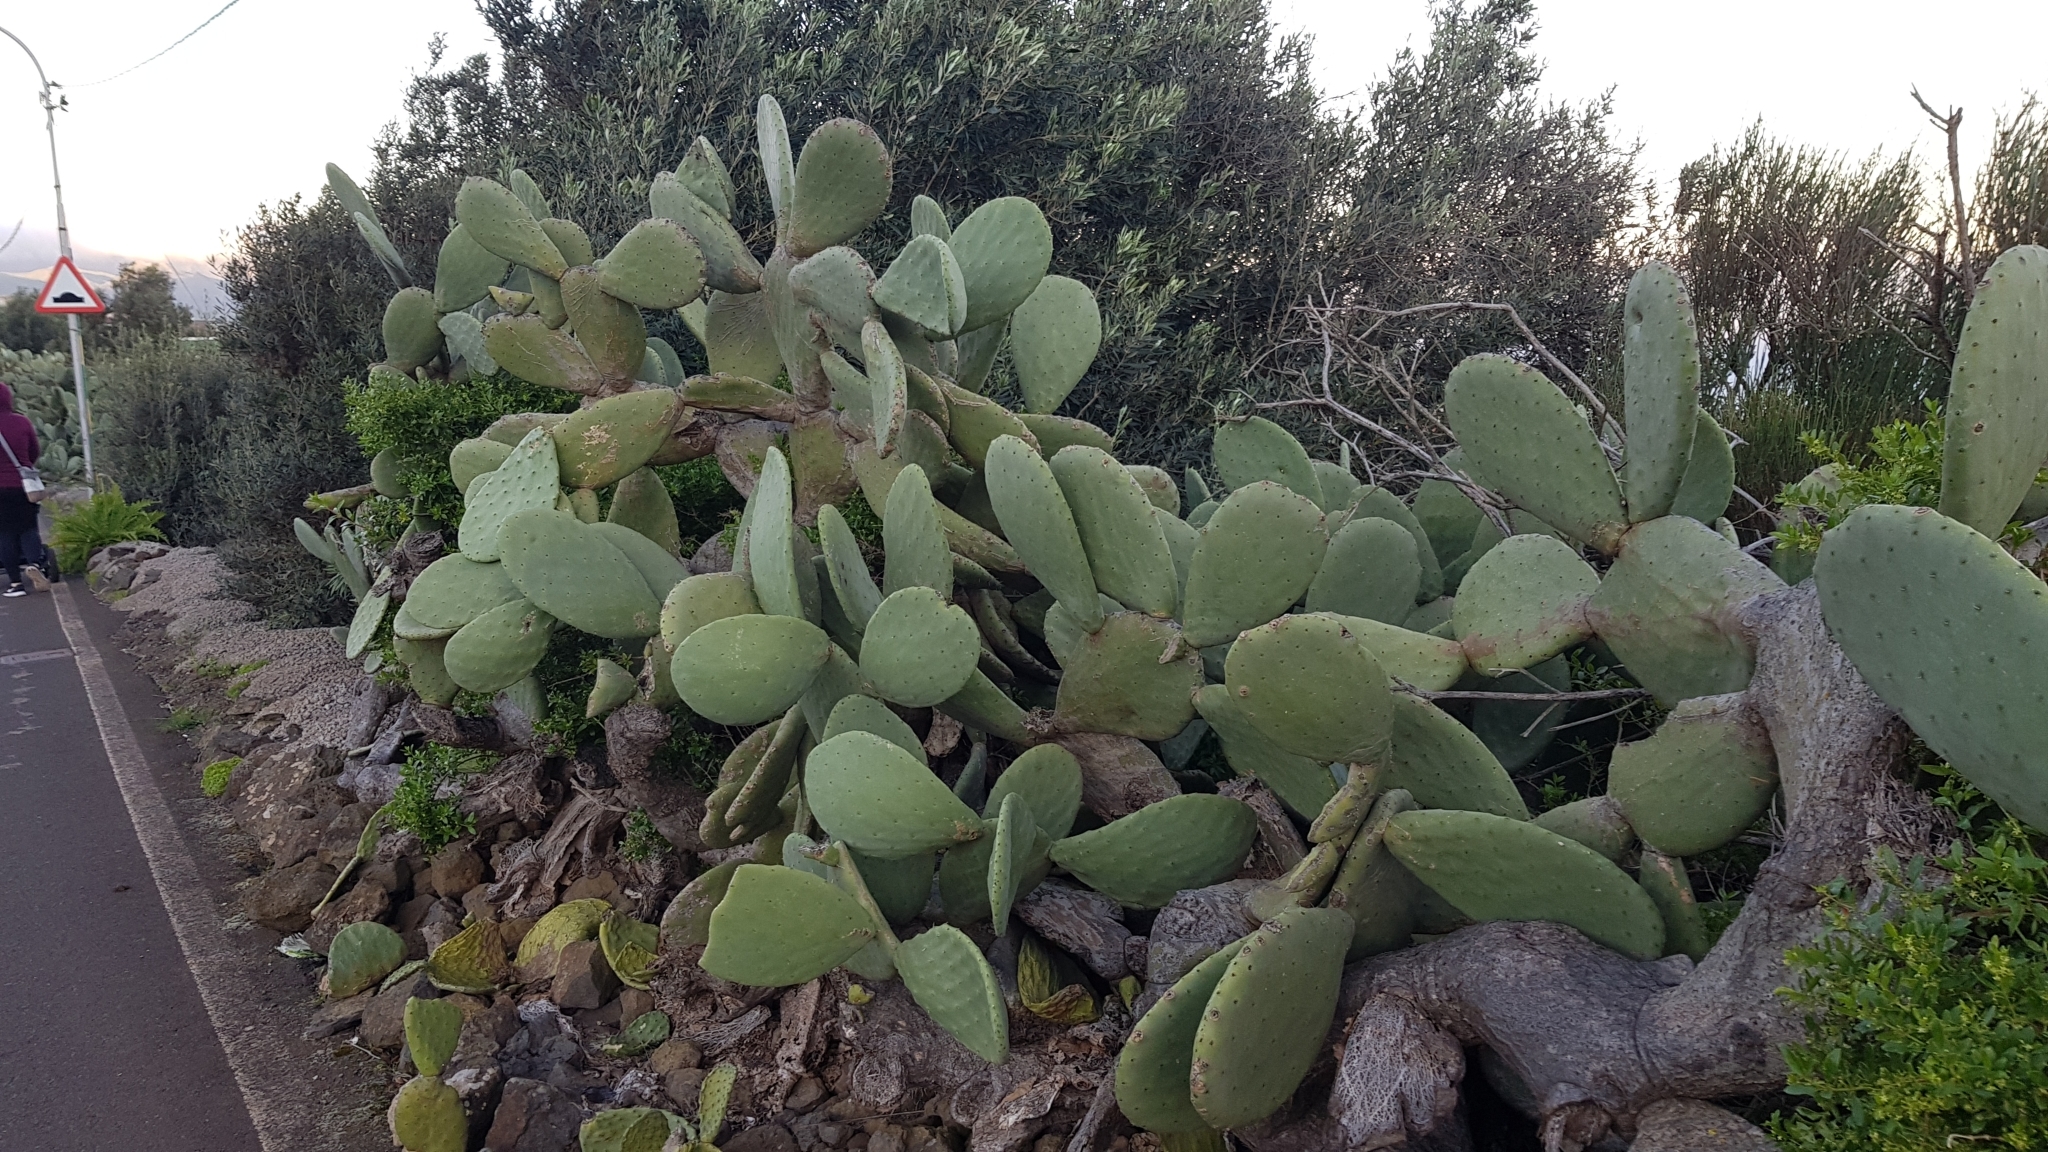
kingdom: Plantae
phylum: Tracheophyta
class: Magnoliopsida
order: Caryophyllales
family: Cactaceae
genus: Opuntia
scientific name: Opuntia ficus-indica
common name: Barbary fig
